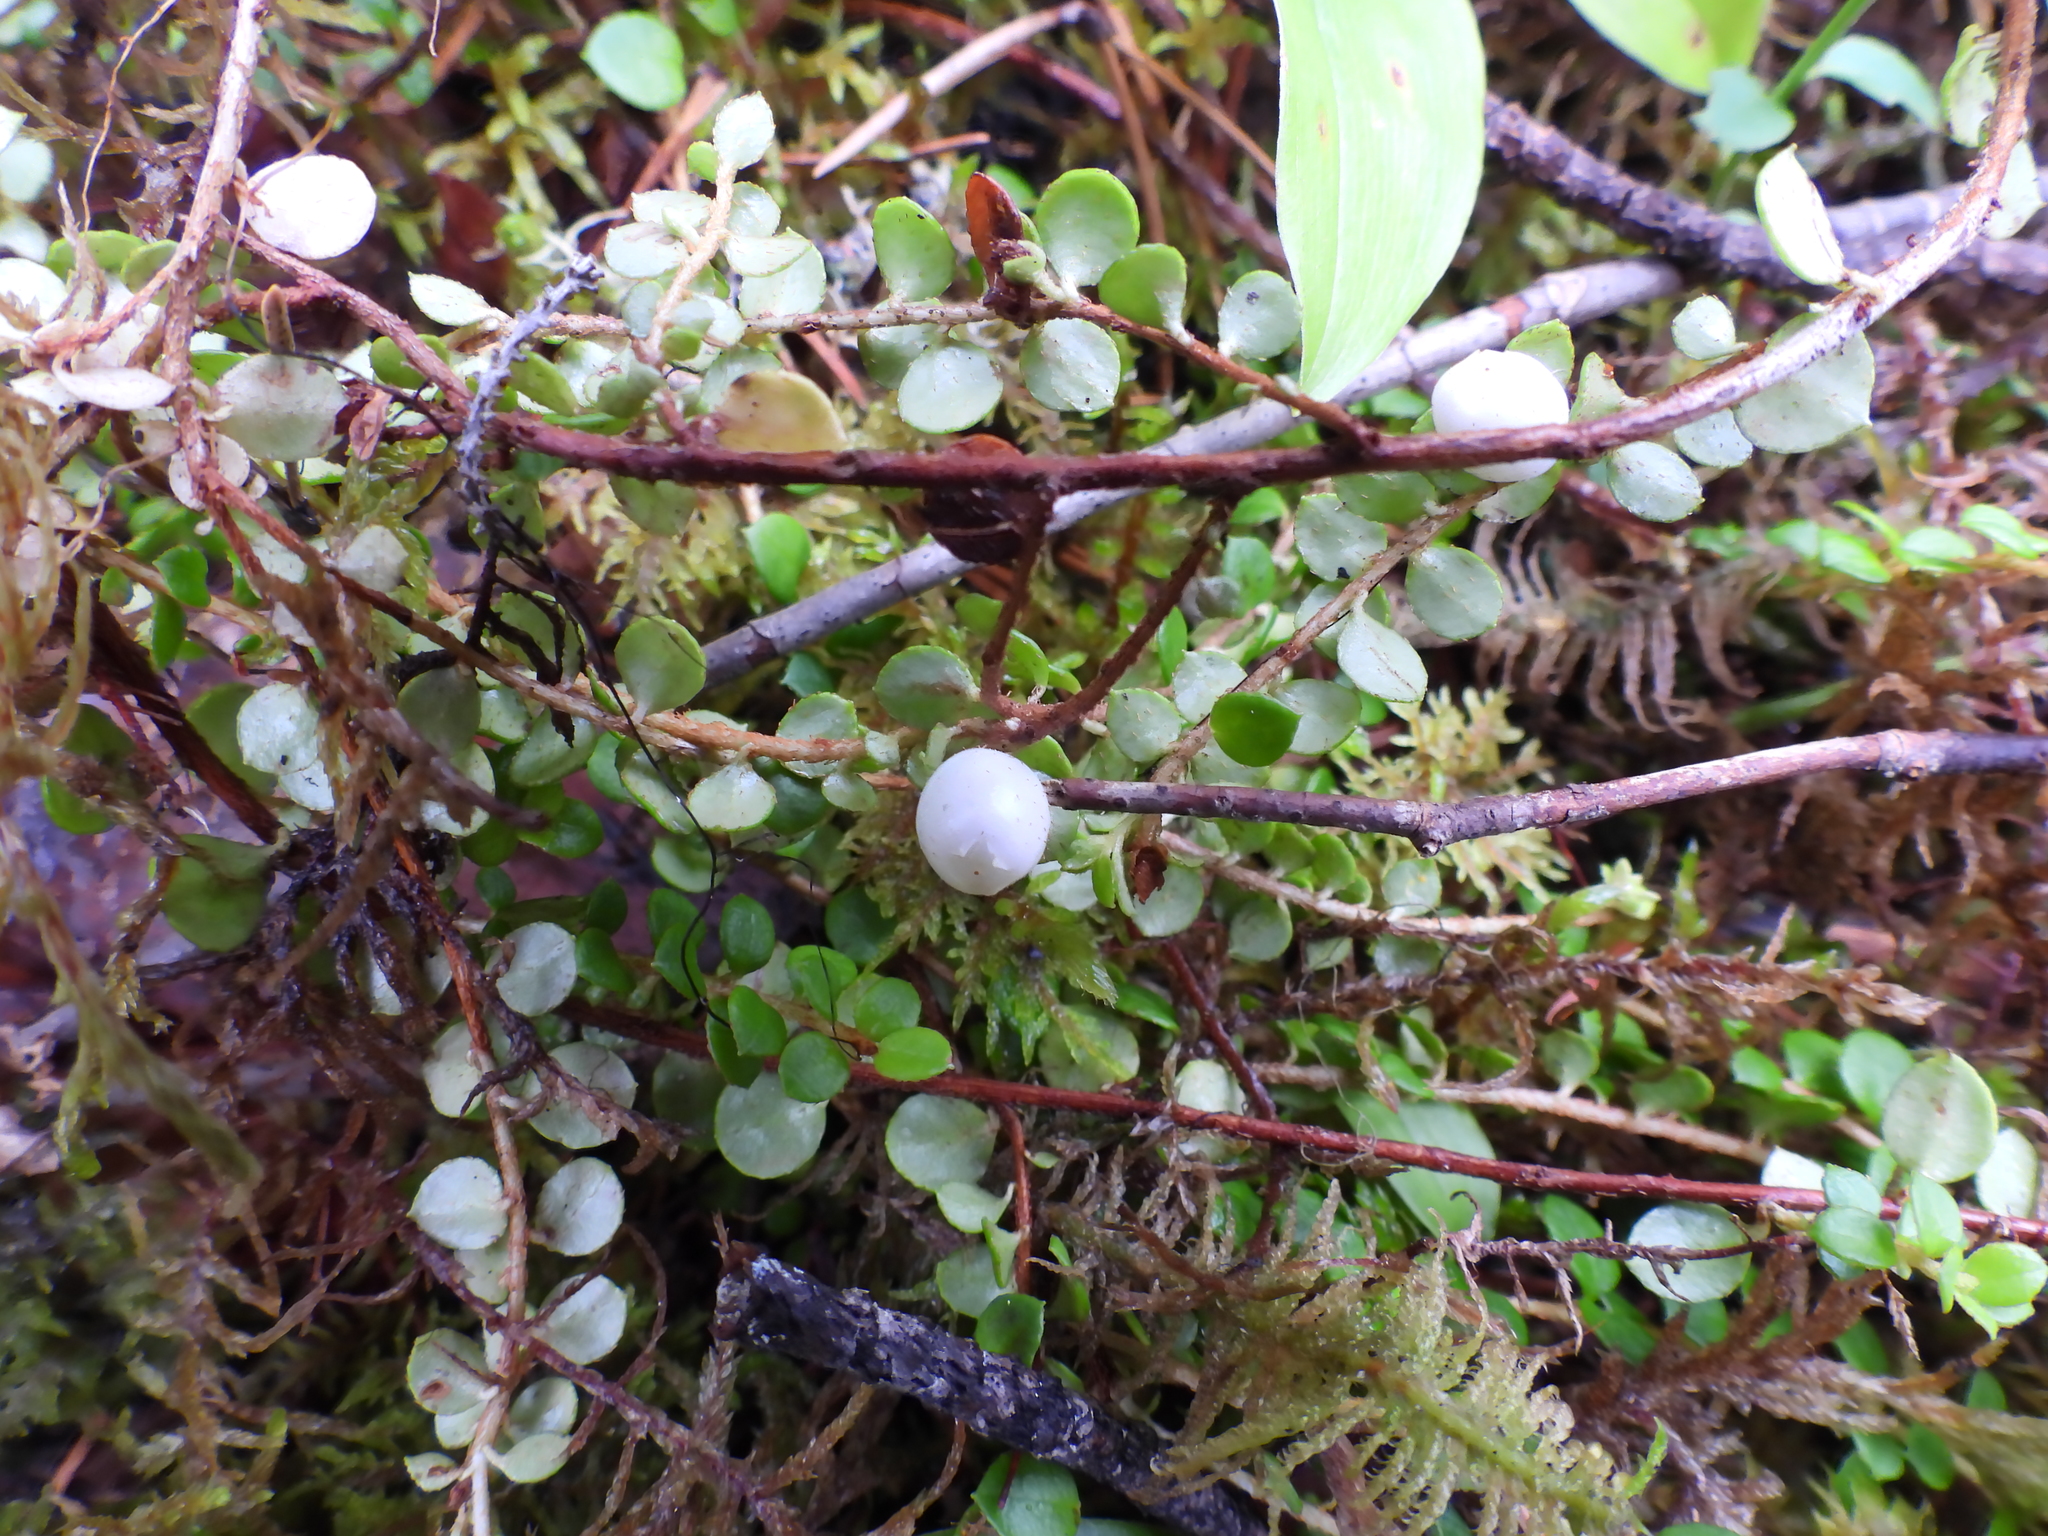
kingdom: Plantae
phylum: Tracheophyta
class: Magnoliopsida
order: Ericales
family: Ericaceae
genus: Gaultheria
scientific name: Gaultheria hispidula
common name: Cancer wintergreen
